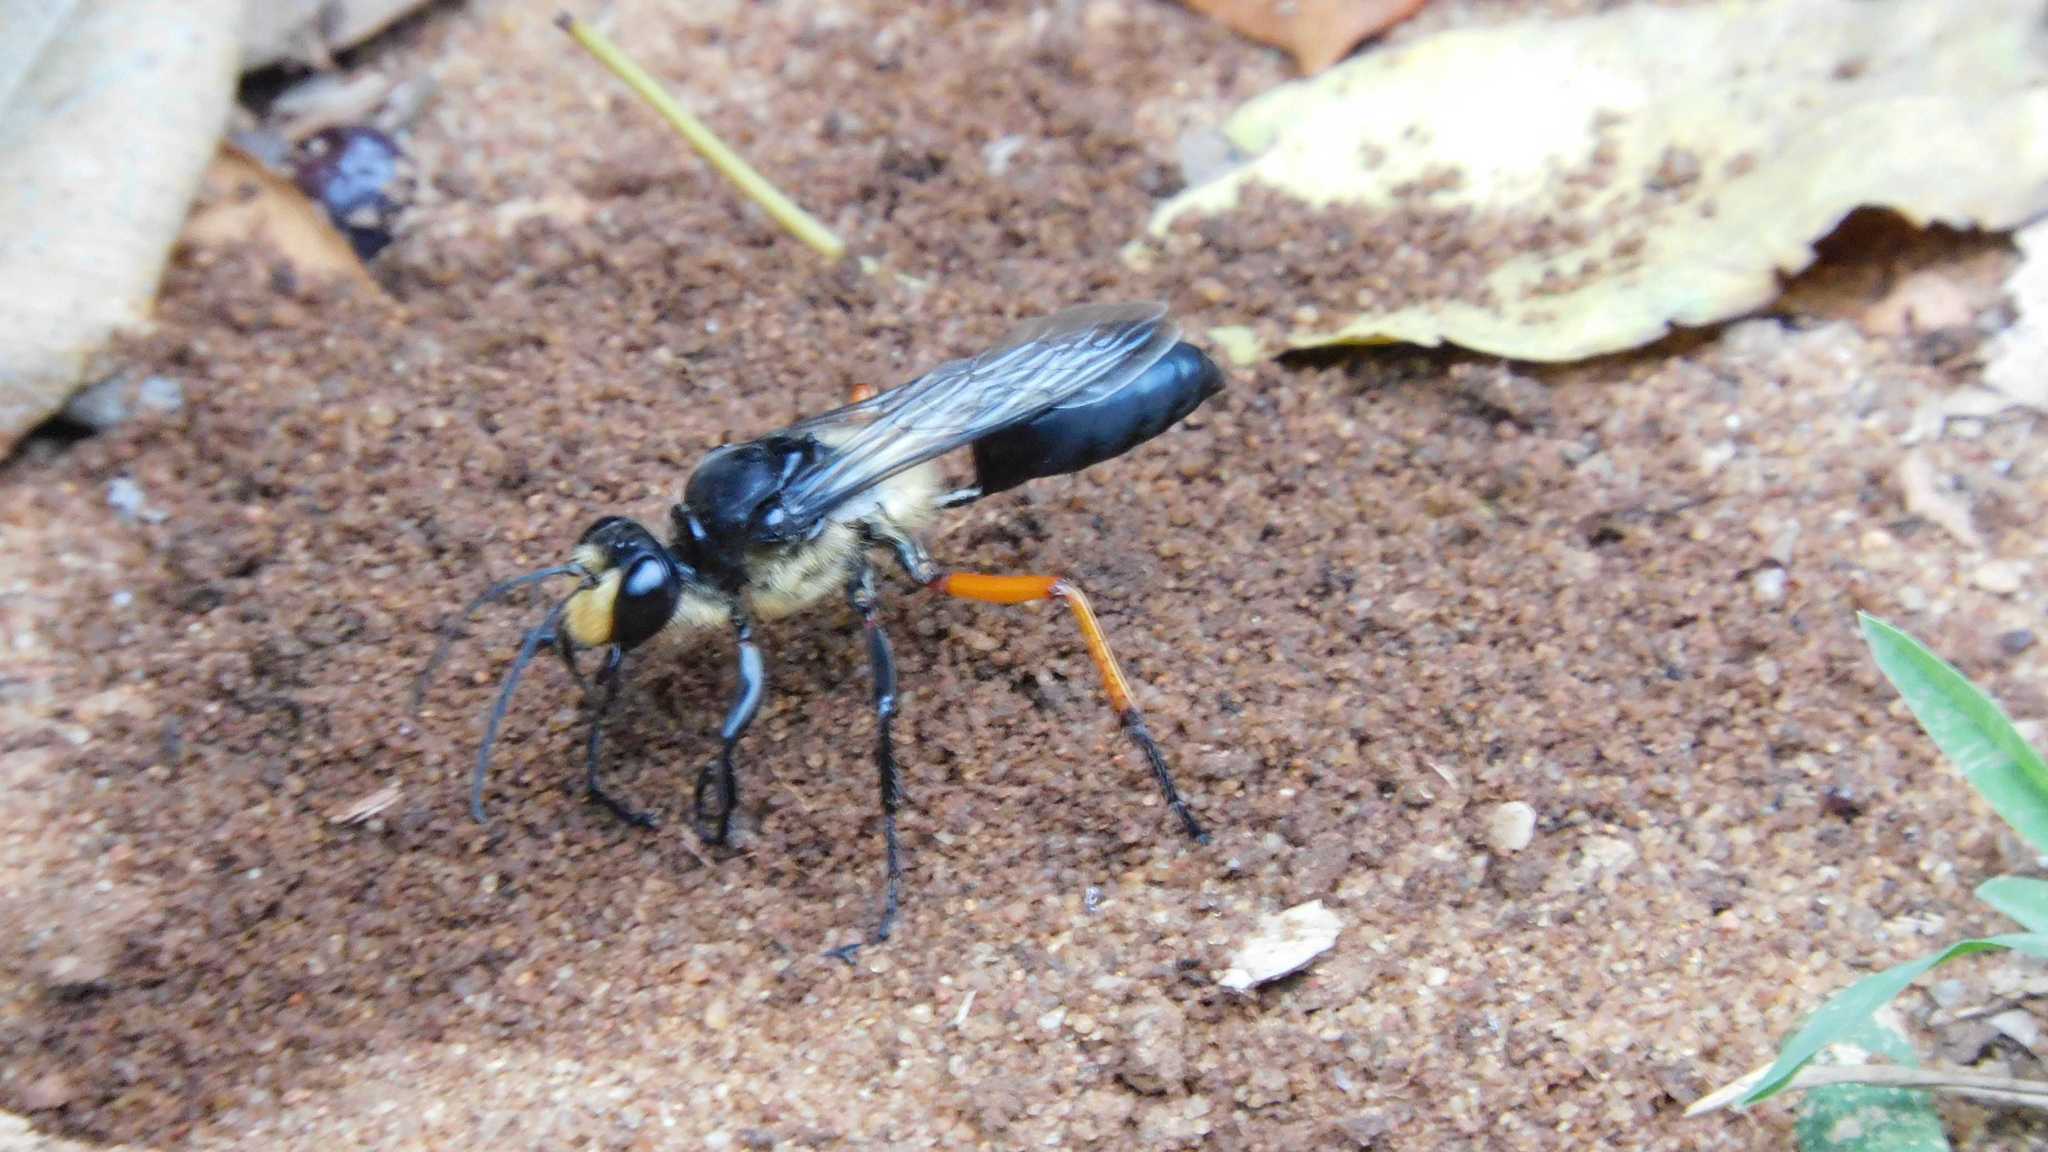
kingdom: Animalia
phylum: Arthropoda
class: Insecta
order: Hymenoptera
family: Sphecidae
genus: Sphex
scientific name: Sphex tomentosus
